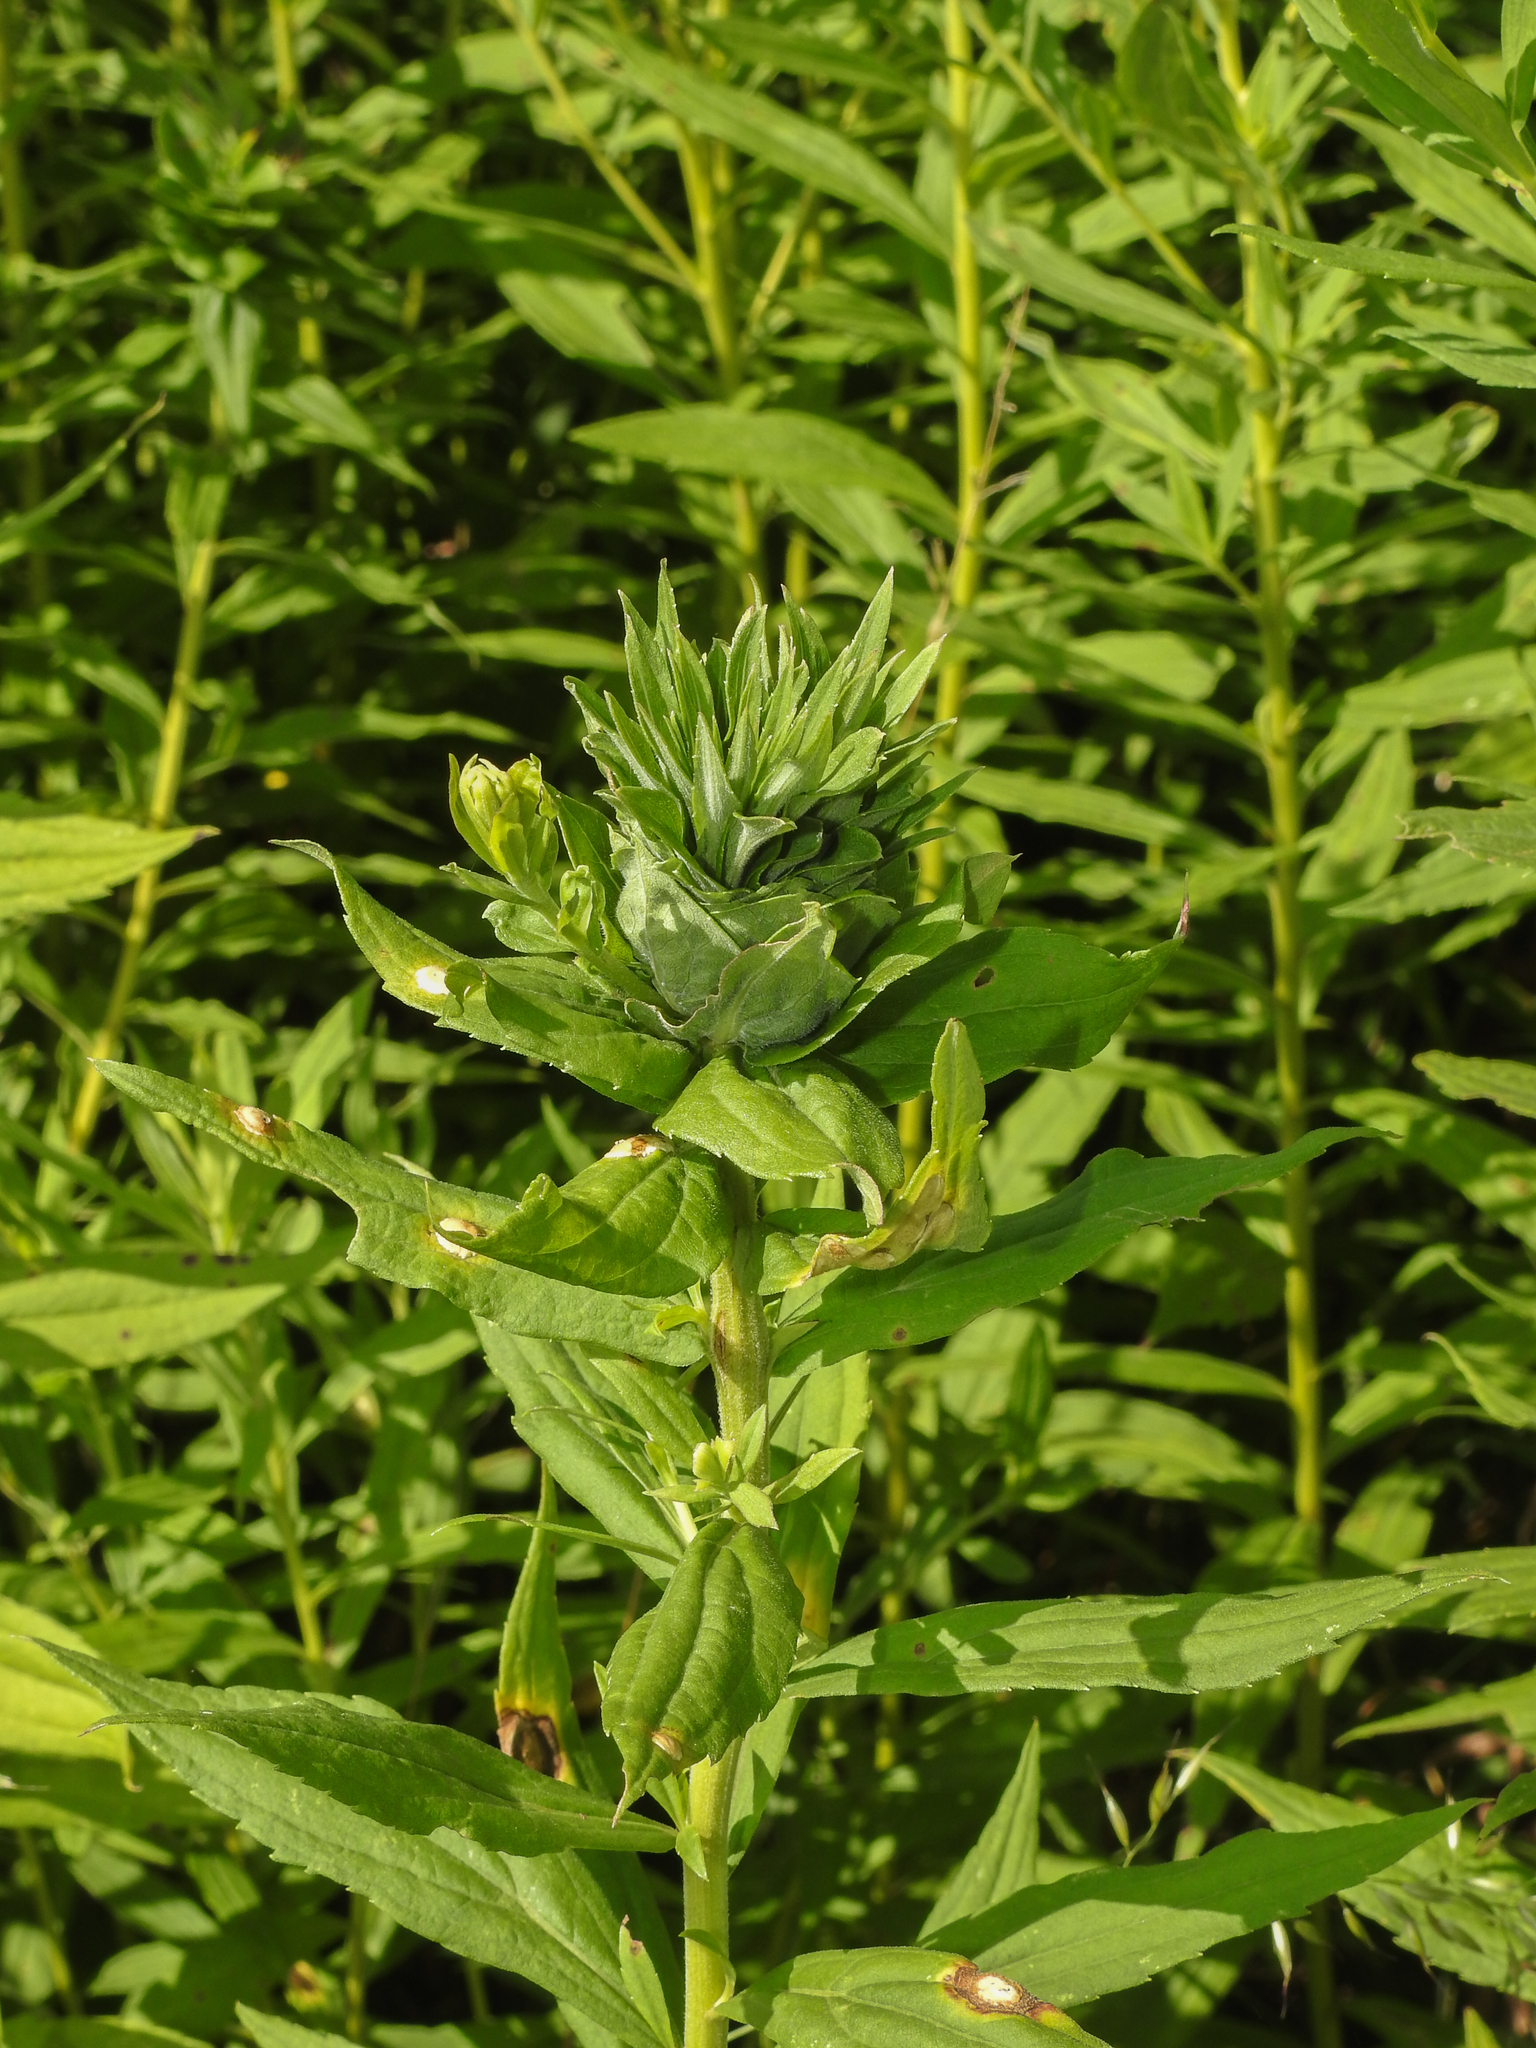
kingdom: Animalia
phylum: Arthropoda
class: Insecta
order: Diptera
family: Cecidomyiidae
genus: Rhopalomyia
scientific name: Rhopalomyia solidaginis
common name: Goldenrod bunch gall midge
